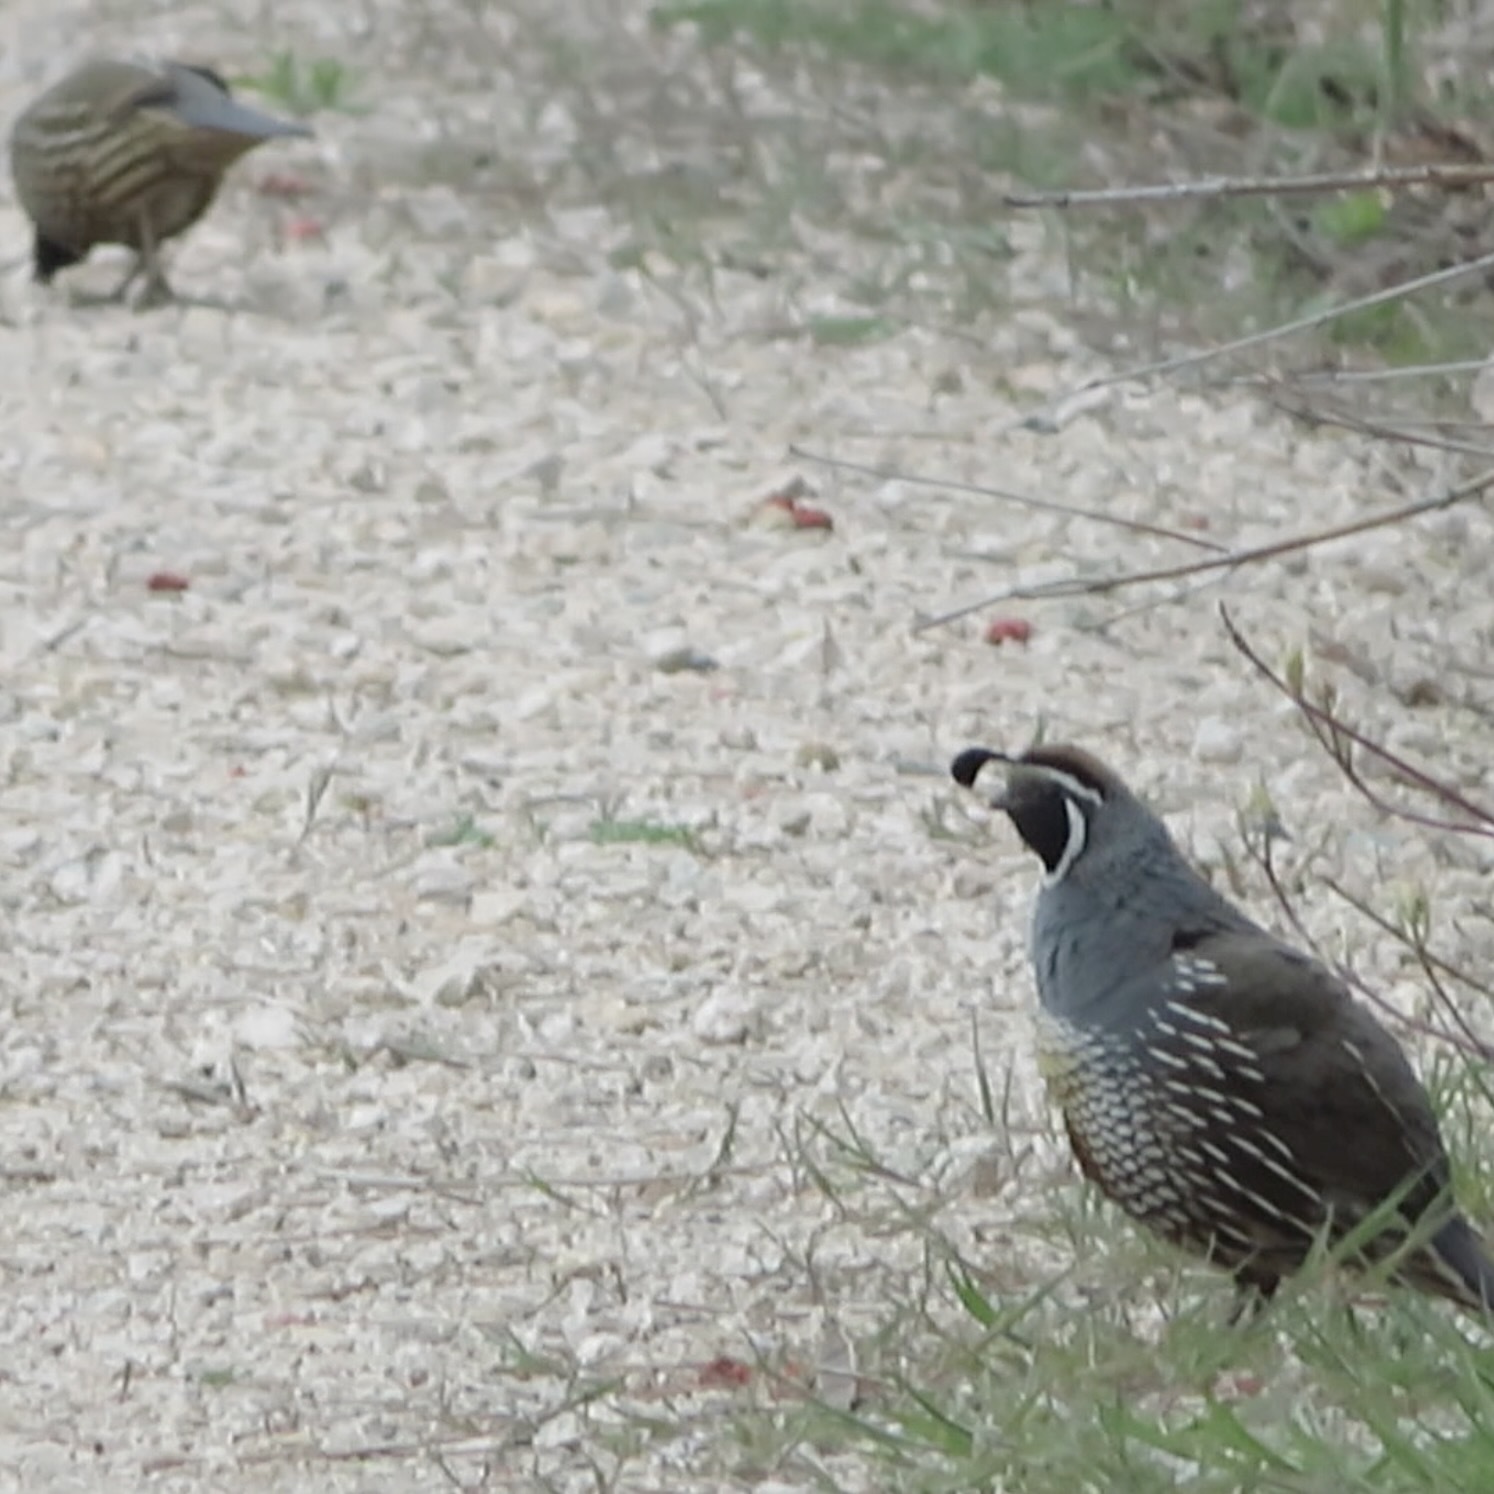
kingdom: Animalia
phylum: Chordata
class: Aves
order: Galliformes
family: Odontophoridae
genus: Callipepla
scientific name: Callipepla californica
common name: California quail
